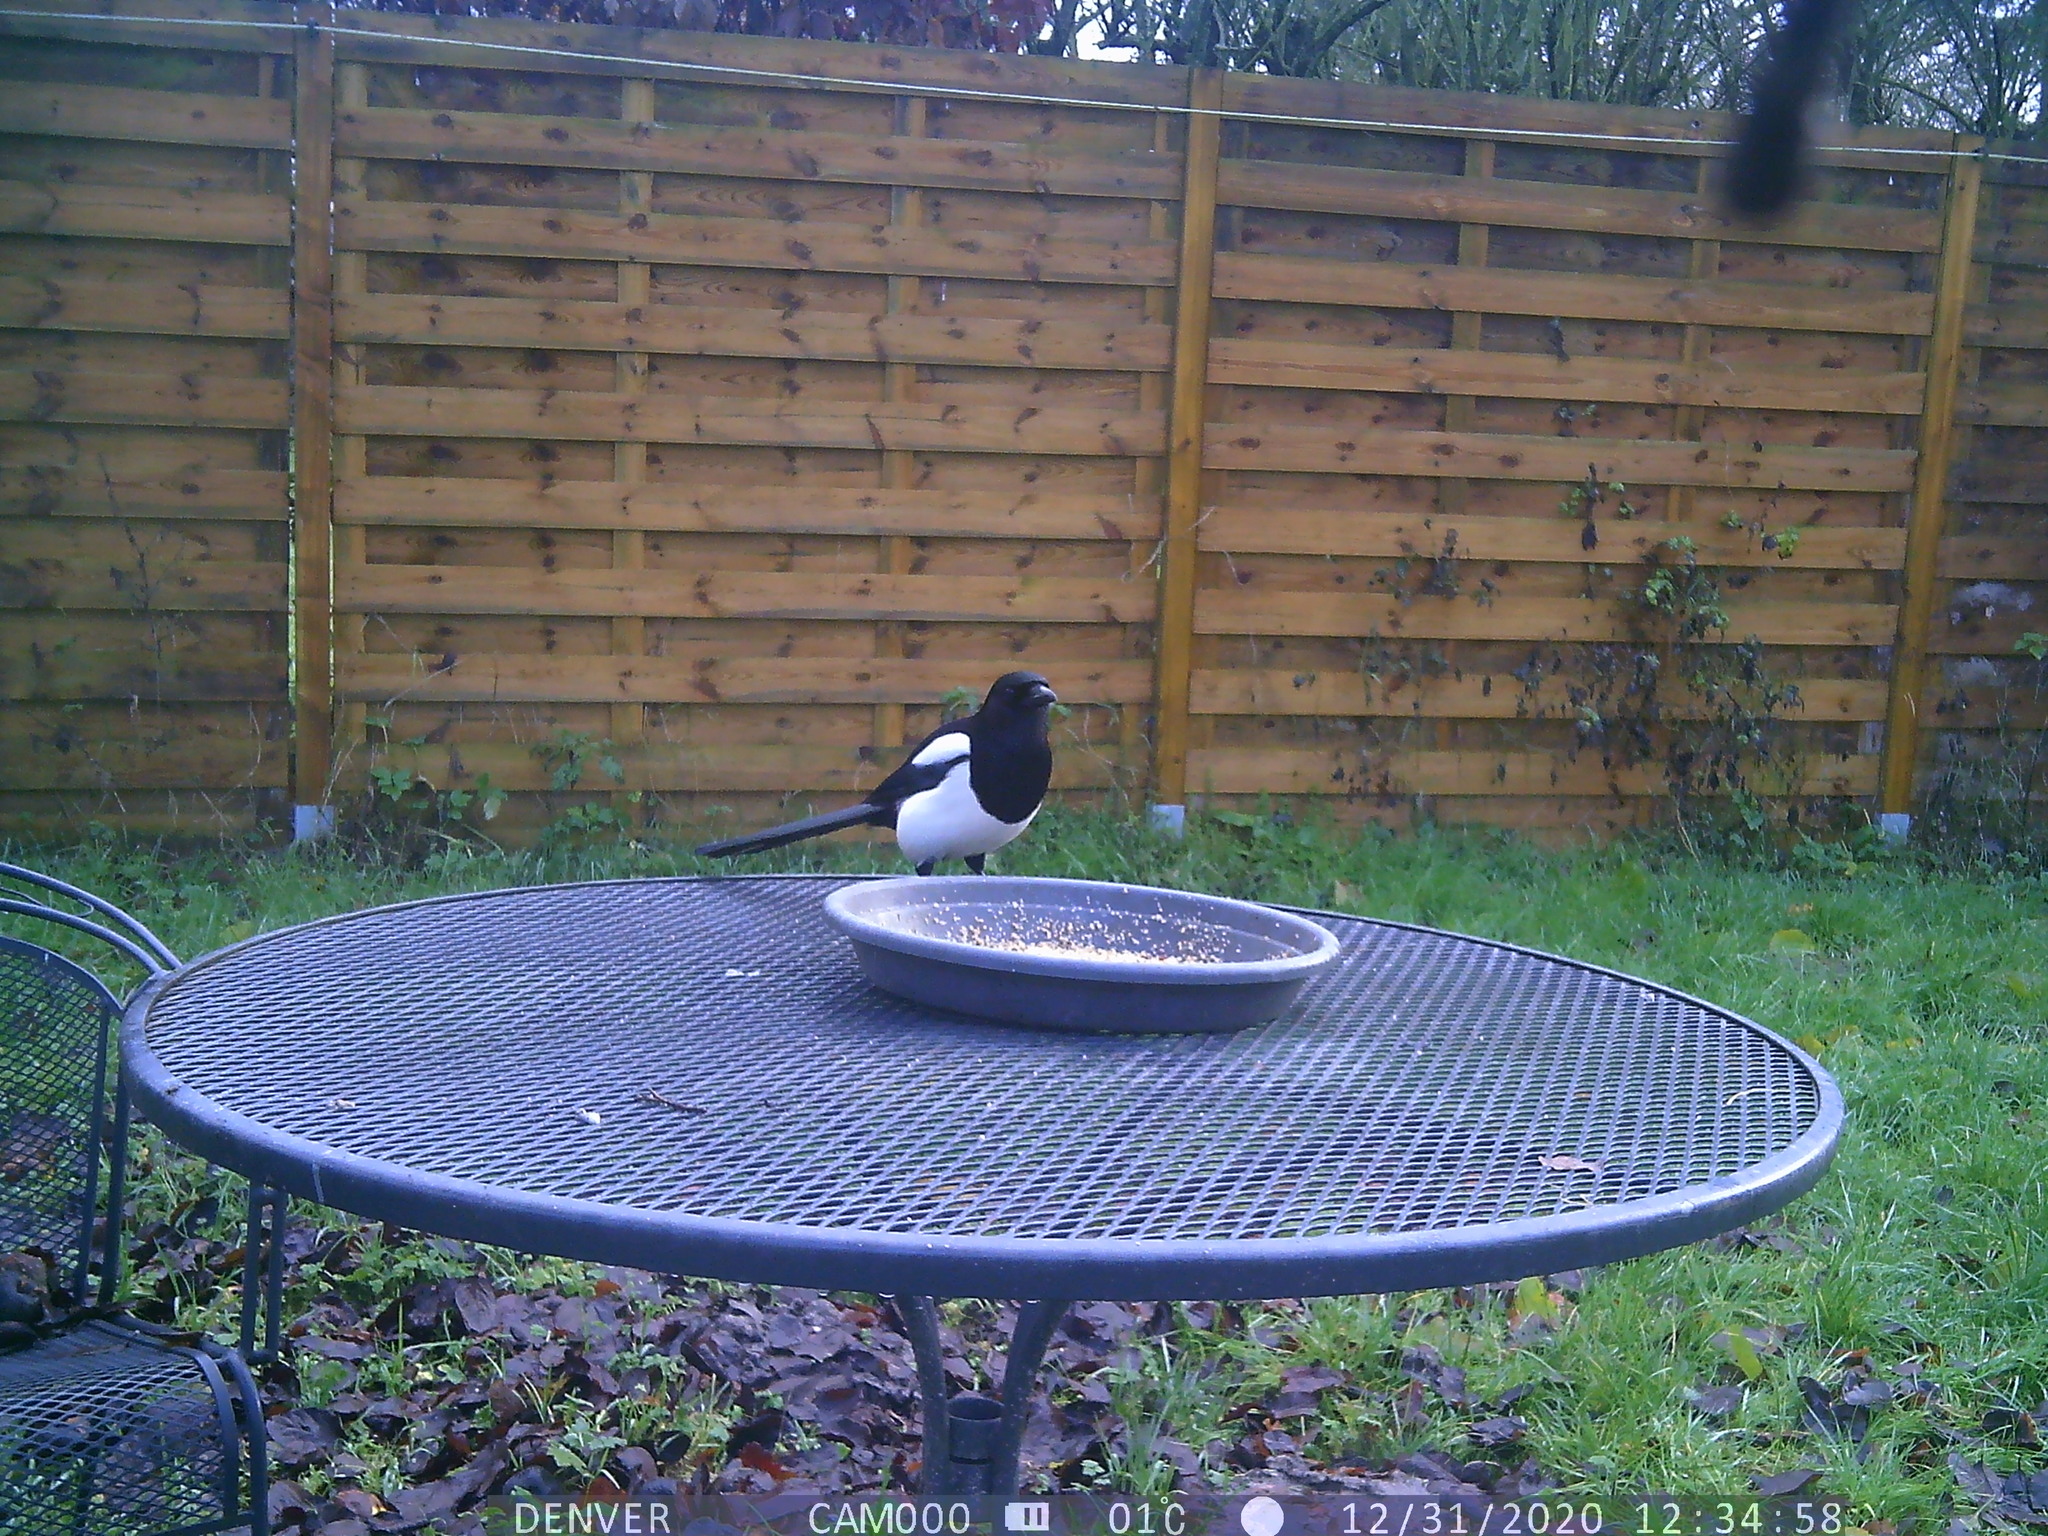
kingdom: Animalia
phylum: Chordata
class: Aves
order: Passeriformes
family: Corvidae
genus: Pica
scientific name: Pica pica
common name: Eurasian magpie
